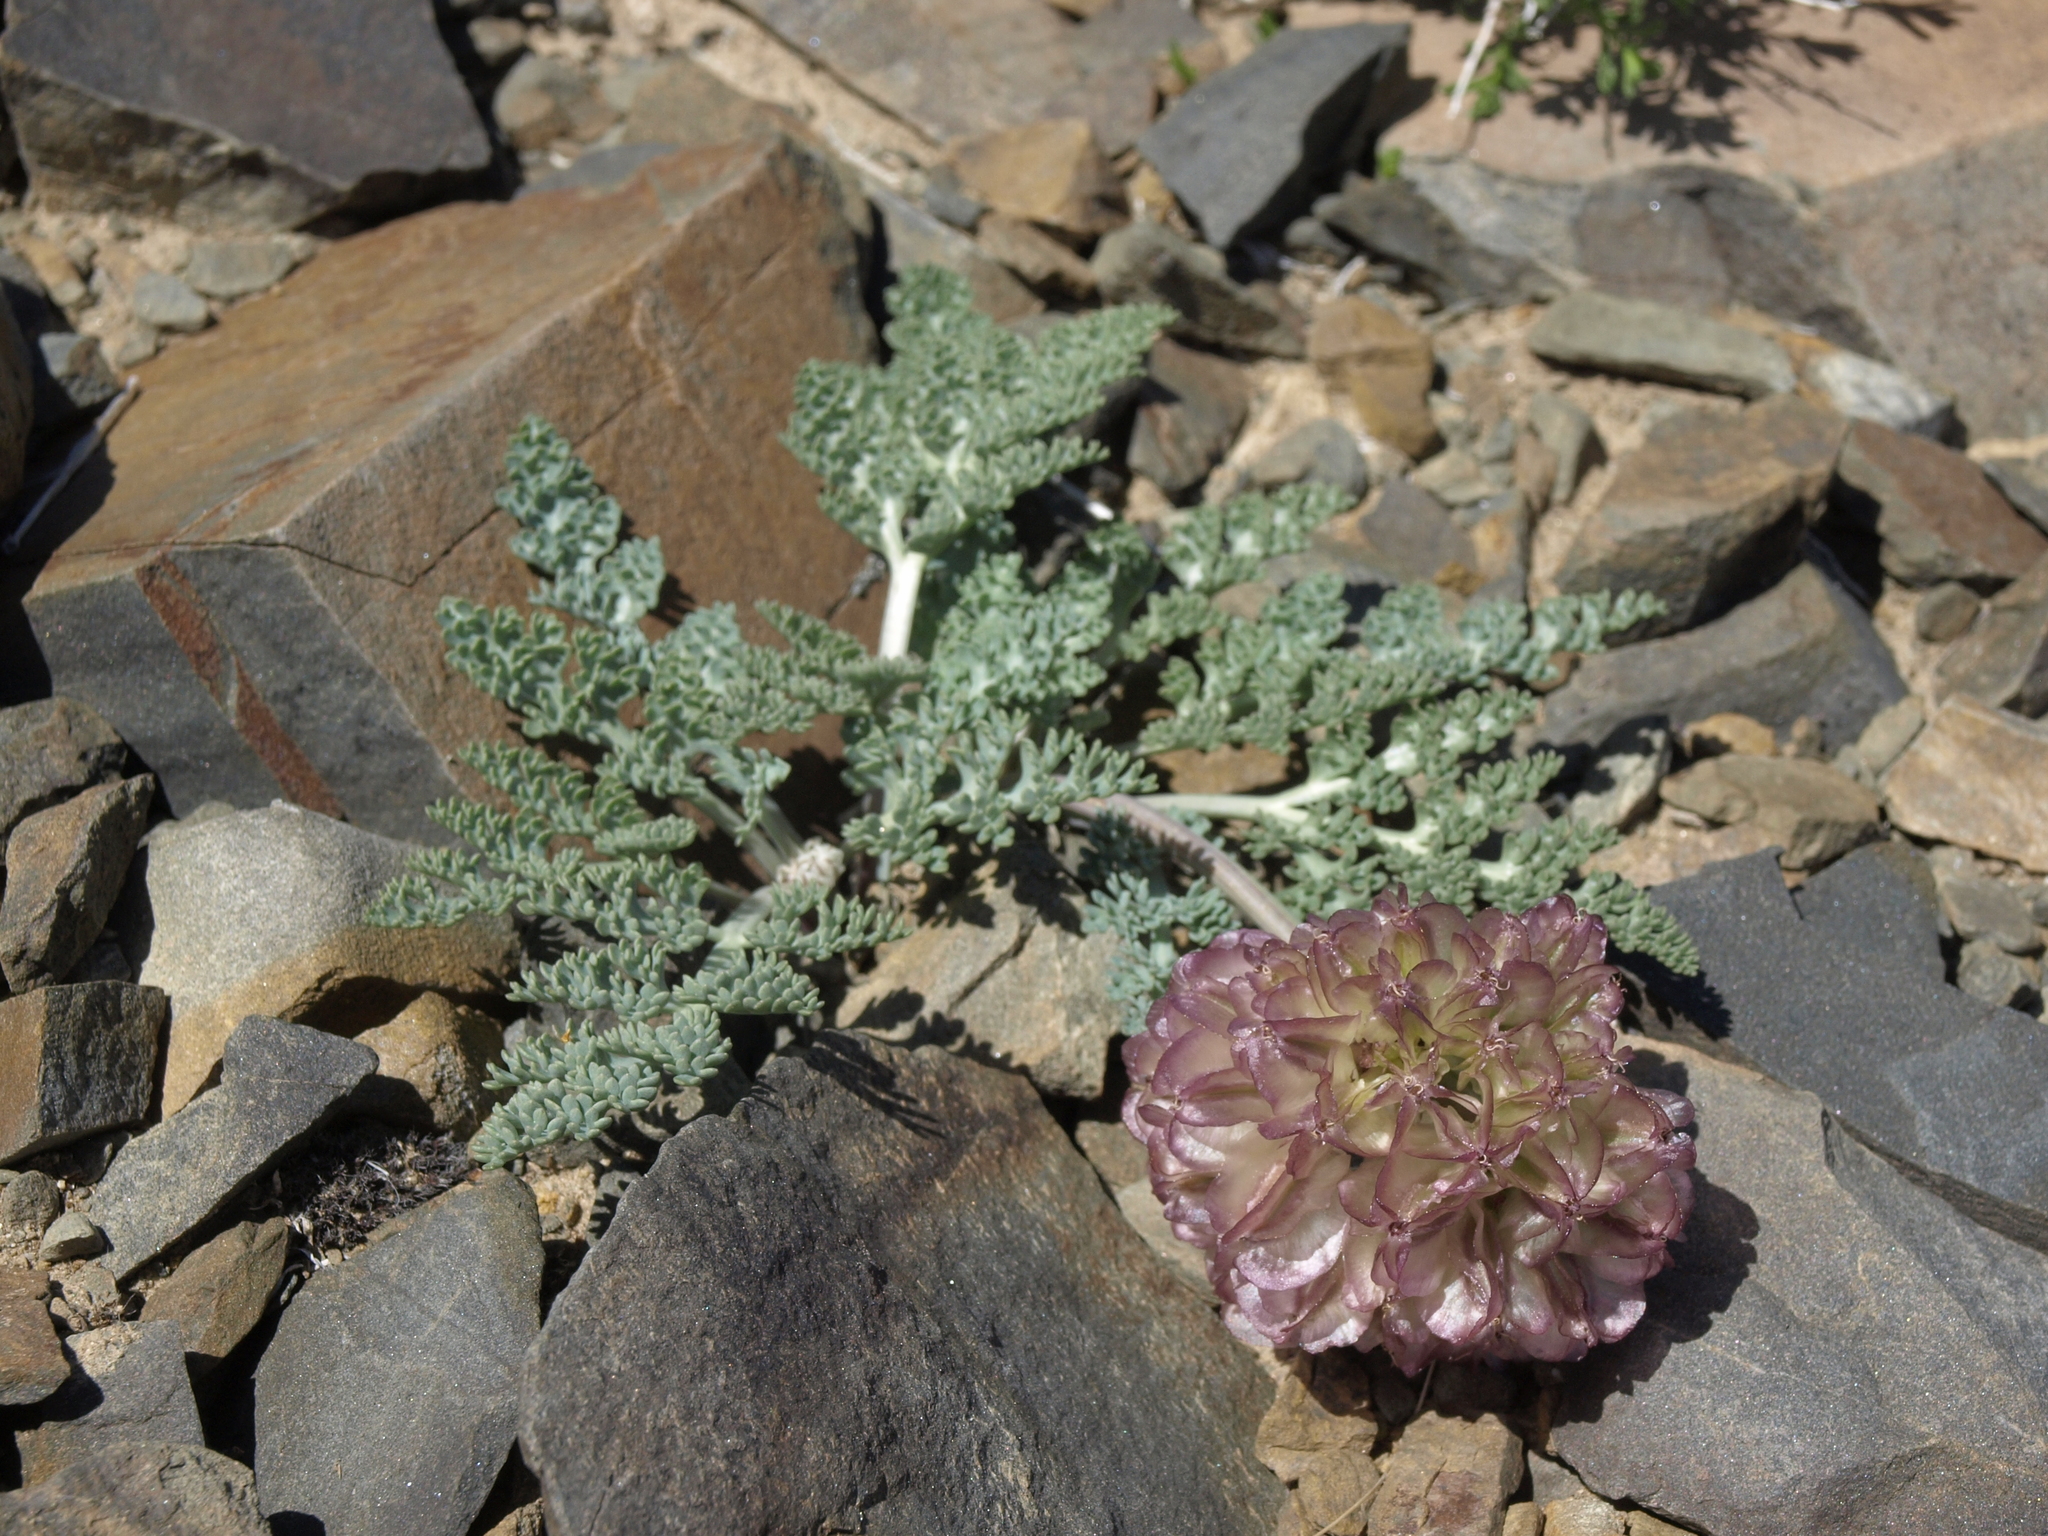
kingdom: Plantae
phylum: Tracheophyta
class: Magnoliopsida
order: Apiales
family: Apiaceae
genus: Vesper
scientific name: Vesper purpurascens
